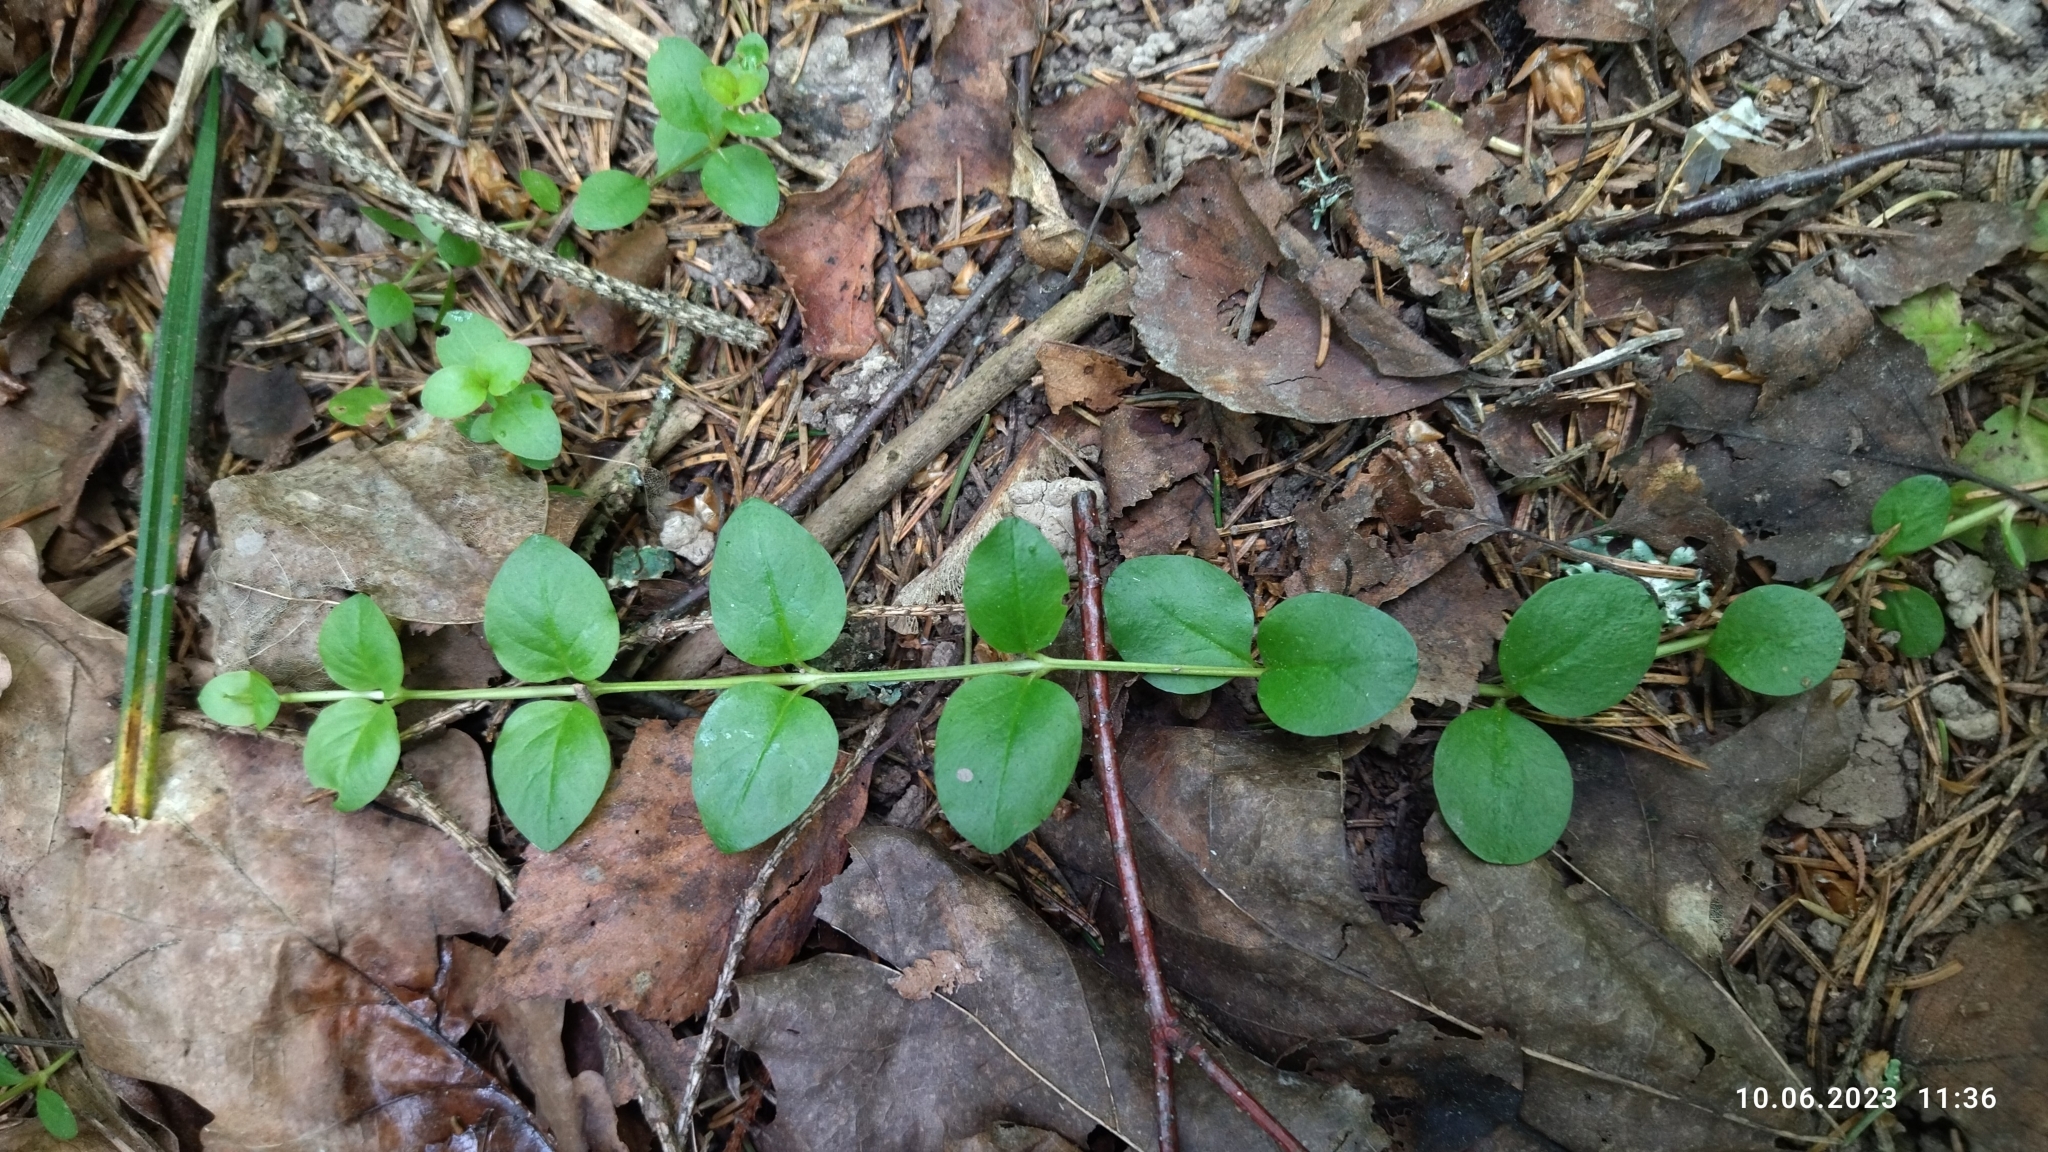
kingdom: Plantae
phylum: Tracheophyta
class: Magnoliopsida
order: Ericales
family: Primulaceae
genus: Lysimachia
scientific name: Lysimachia nummularia
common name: Moneywort
